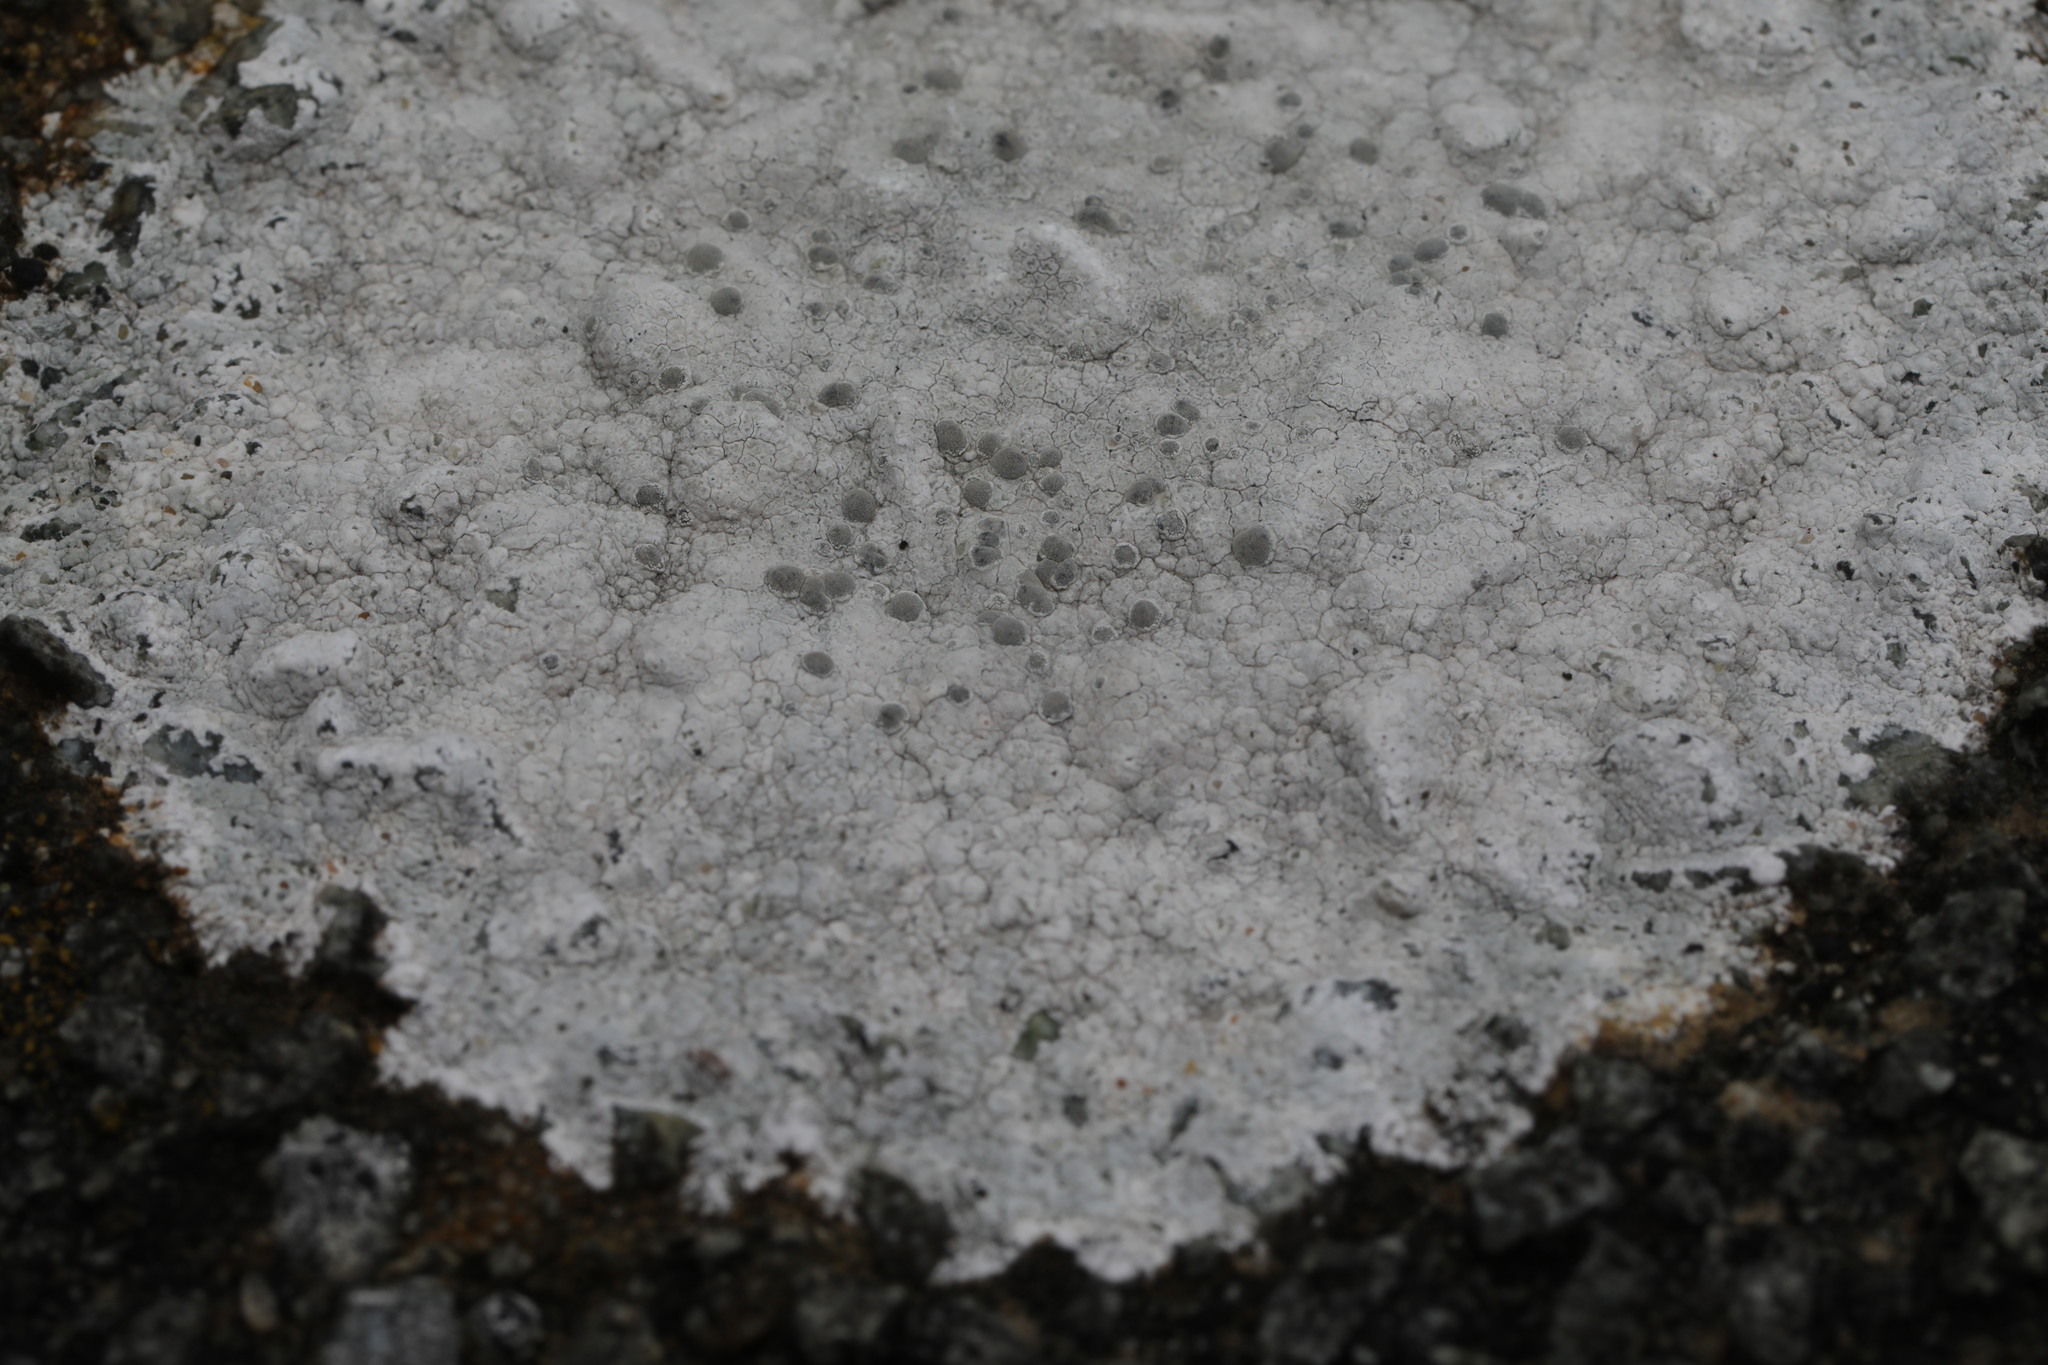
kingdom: Fungi
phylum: Ascomycota
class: Lecanoromycetes
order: Lecanorales
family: Lecanoraceae
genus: Glaucomaria
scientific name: Glaucomaria rupicola
